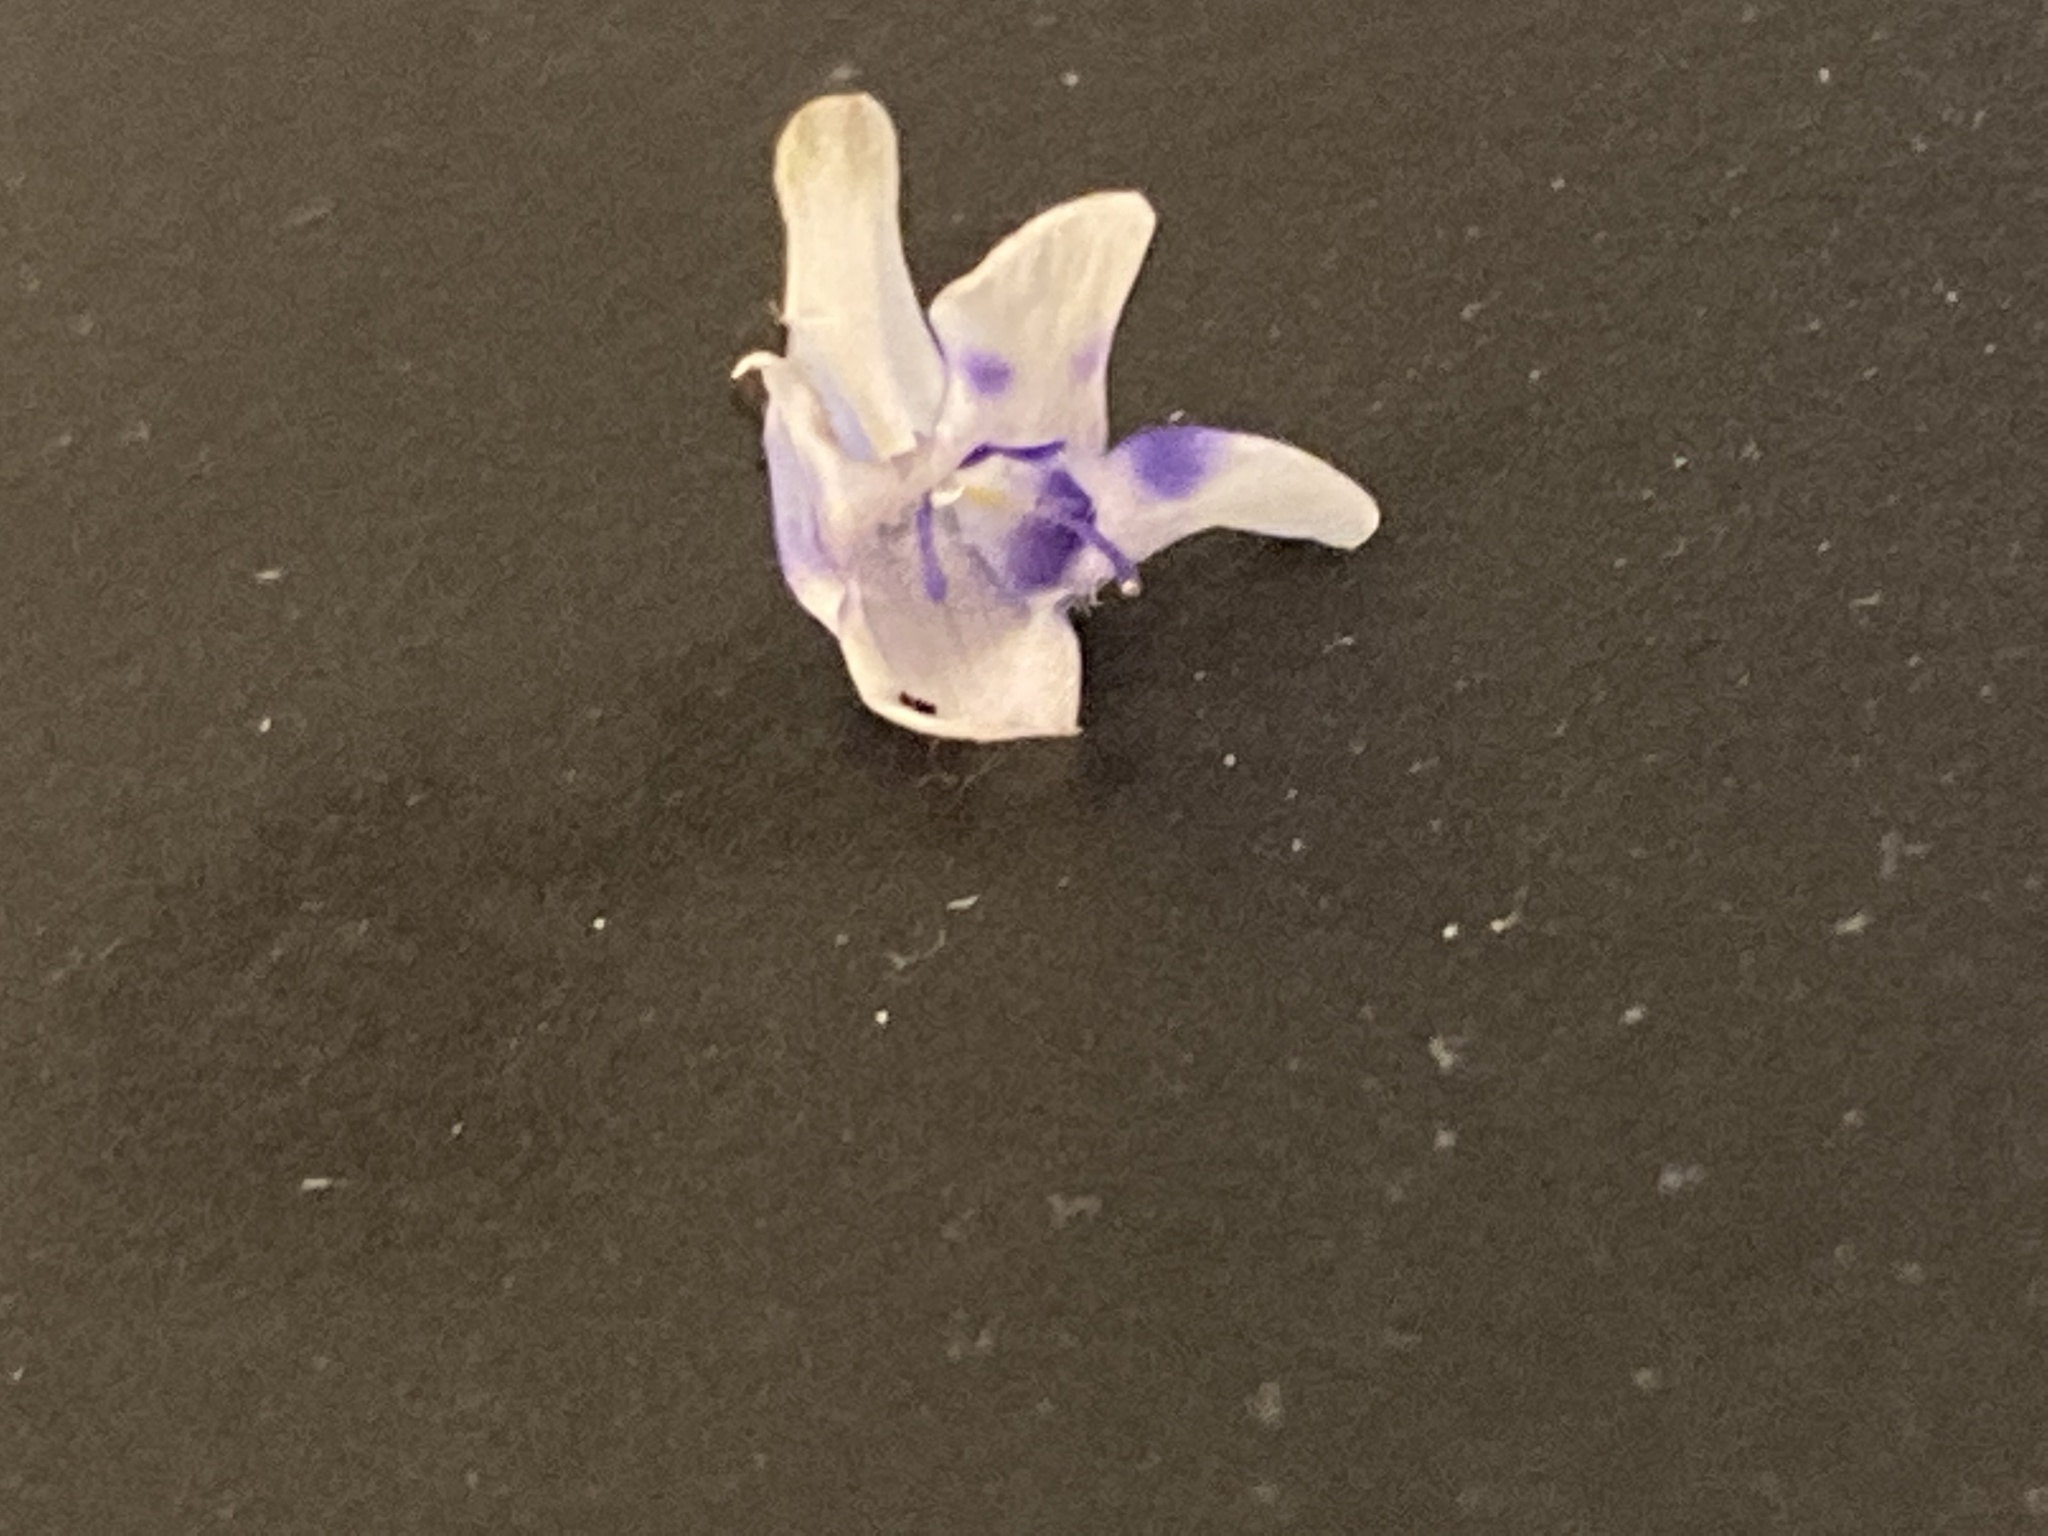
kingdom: Plantae
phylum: Tracheophyta
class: Magnoliopsida
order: Lamiales
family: Linderniaceae
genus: Lindernia
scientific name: Lindernia grandiflora
